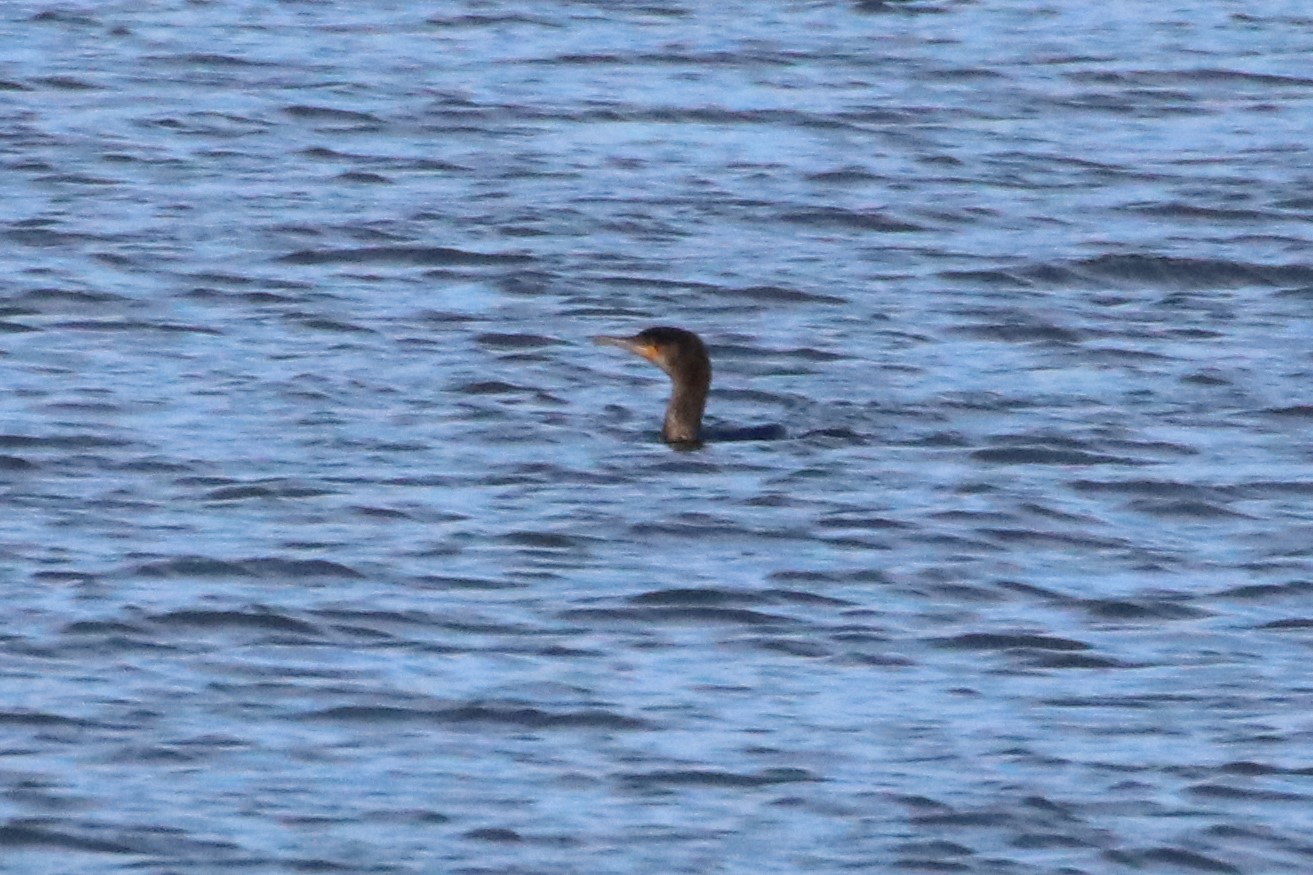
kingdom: Animalia
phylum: Chordata
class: Aves
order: Suliformes
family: Phalacrocoracidae
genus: Phalacrocorax
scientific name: Phalacrocorax auritus
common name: Double-crested cormorant
